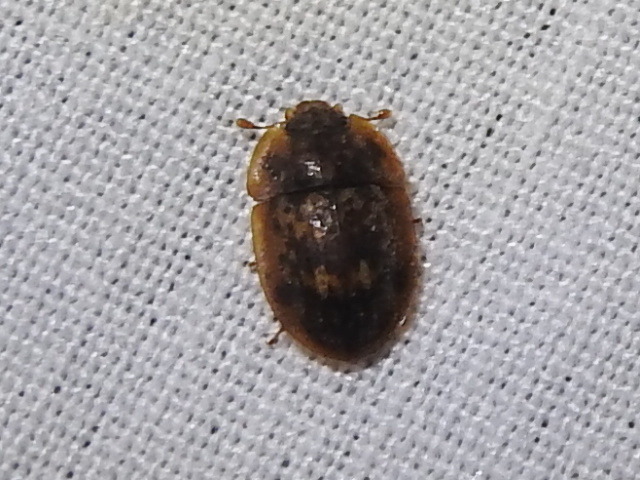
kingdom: Animalia
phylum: Arthropoda
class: Insecta
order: Coleoptera
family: Nitidulidae
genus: Lobiopa
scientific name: Lobiopa undulata
